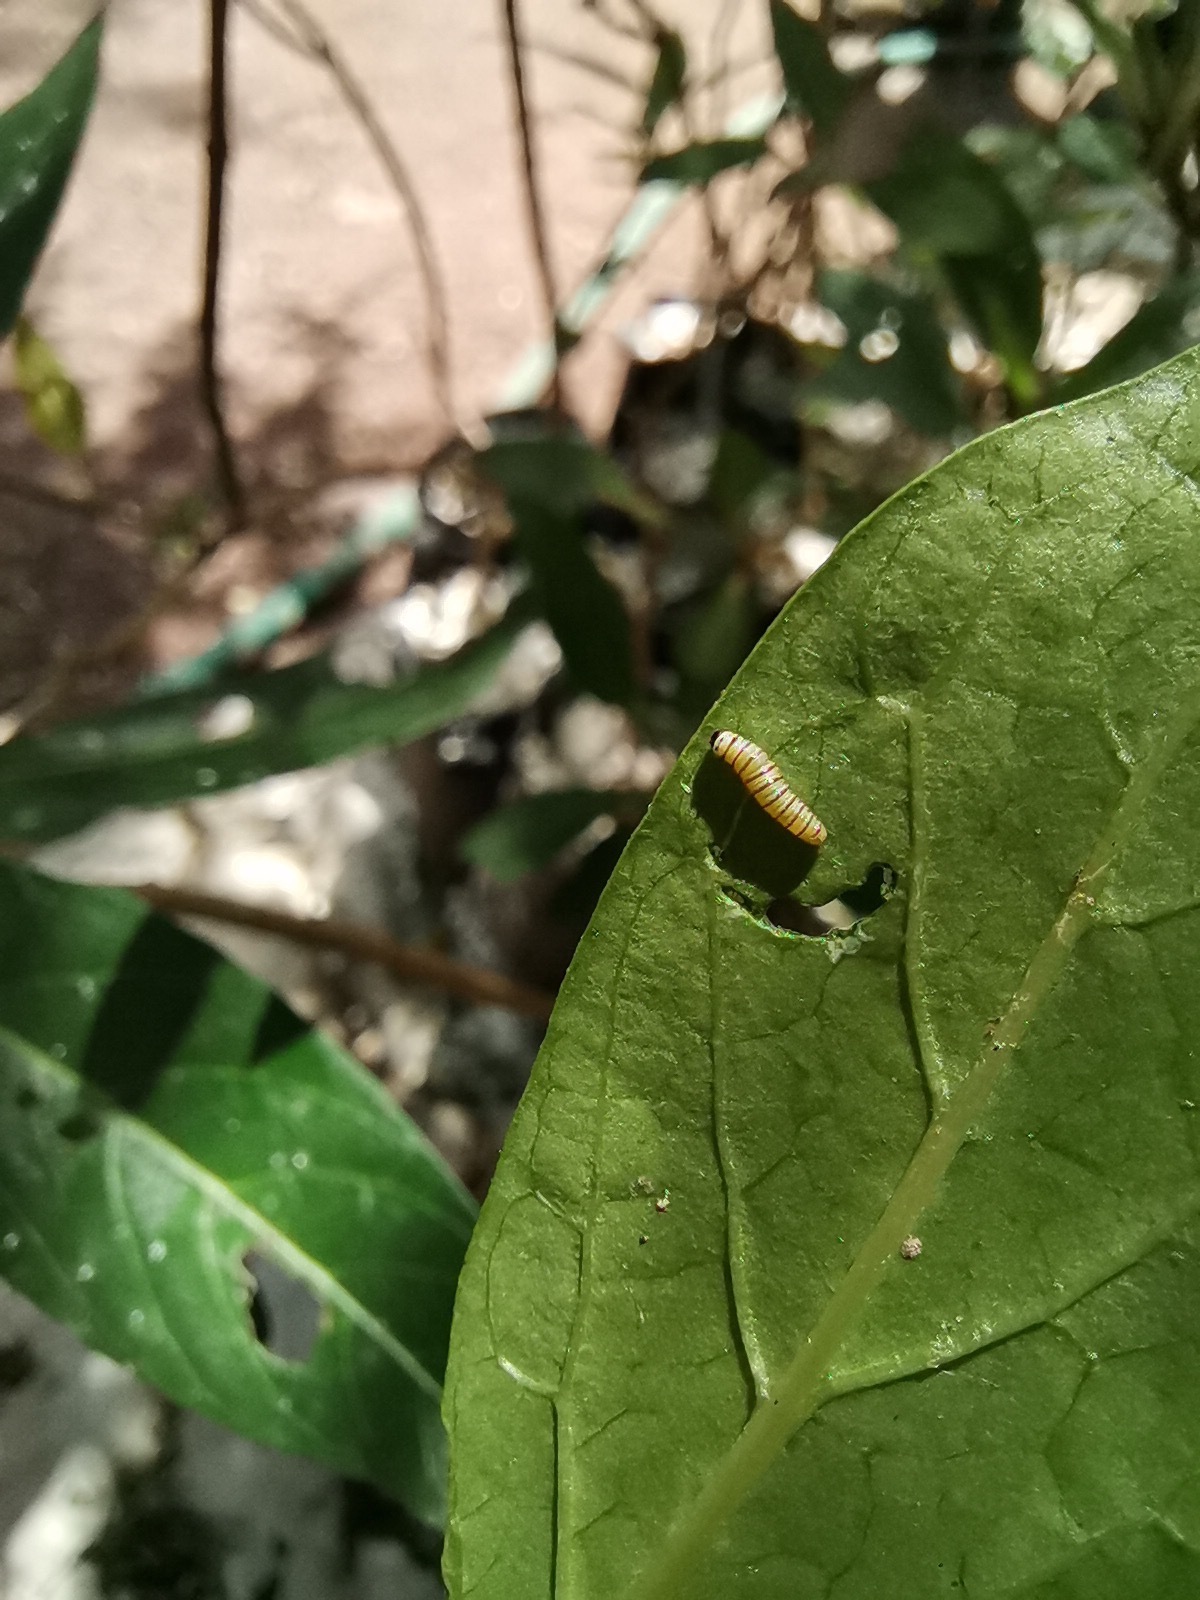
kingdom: Animalia
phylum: Arthropoda
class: Insecta
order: Lepidoptera
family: Nymphalidae
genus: Danaus
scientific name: Danaus plexippus
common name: Monarch
